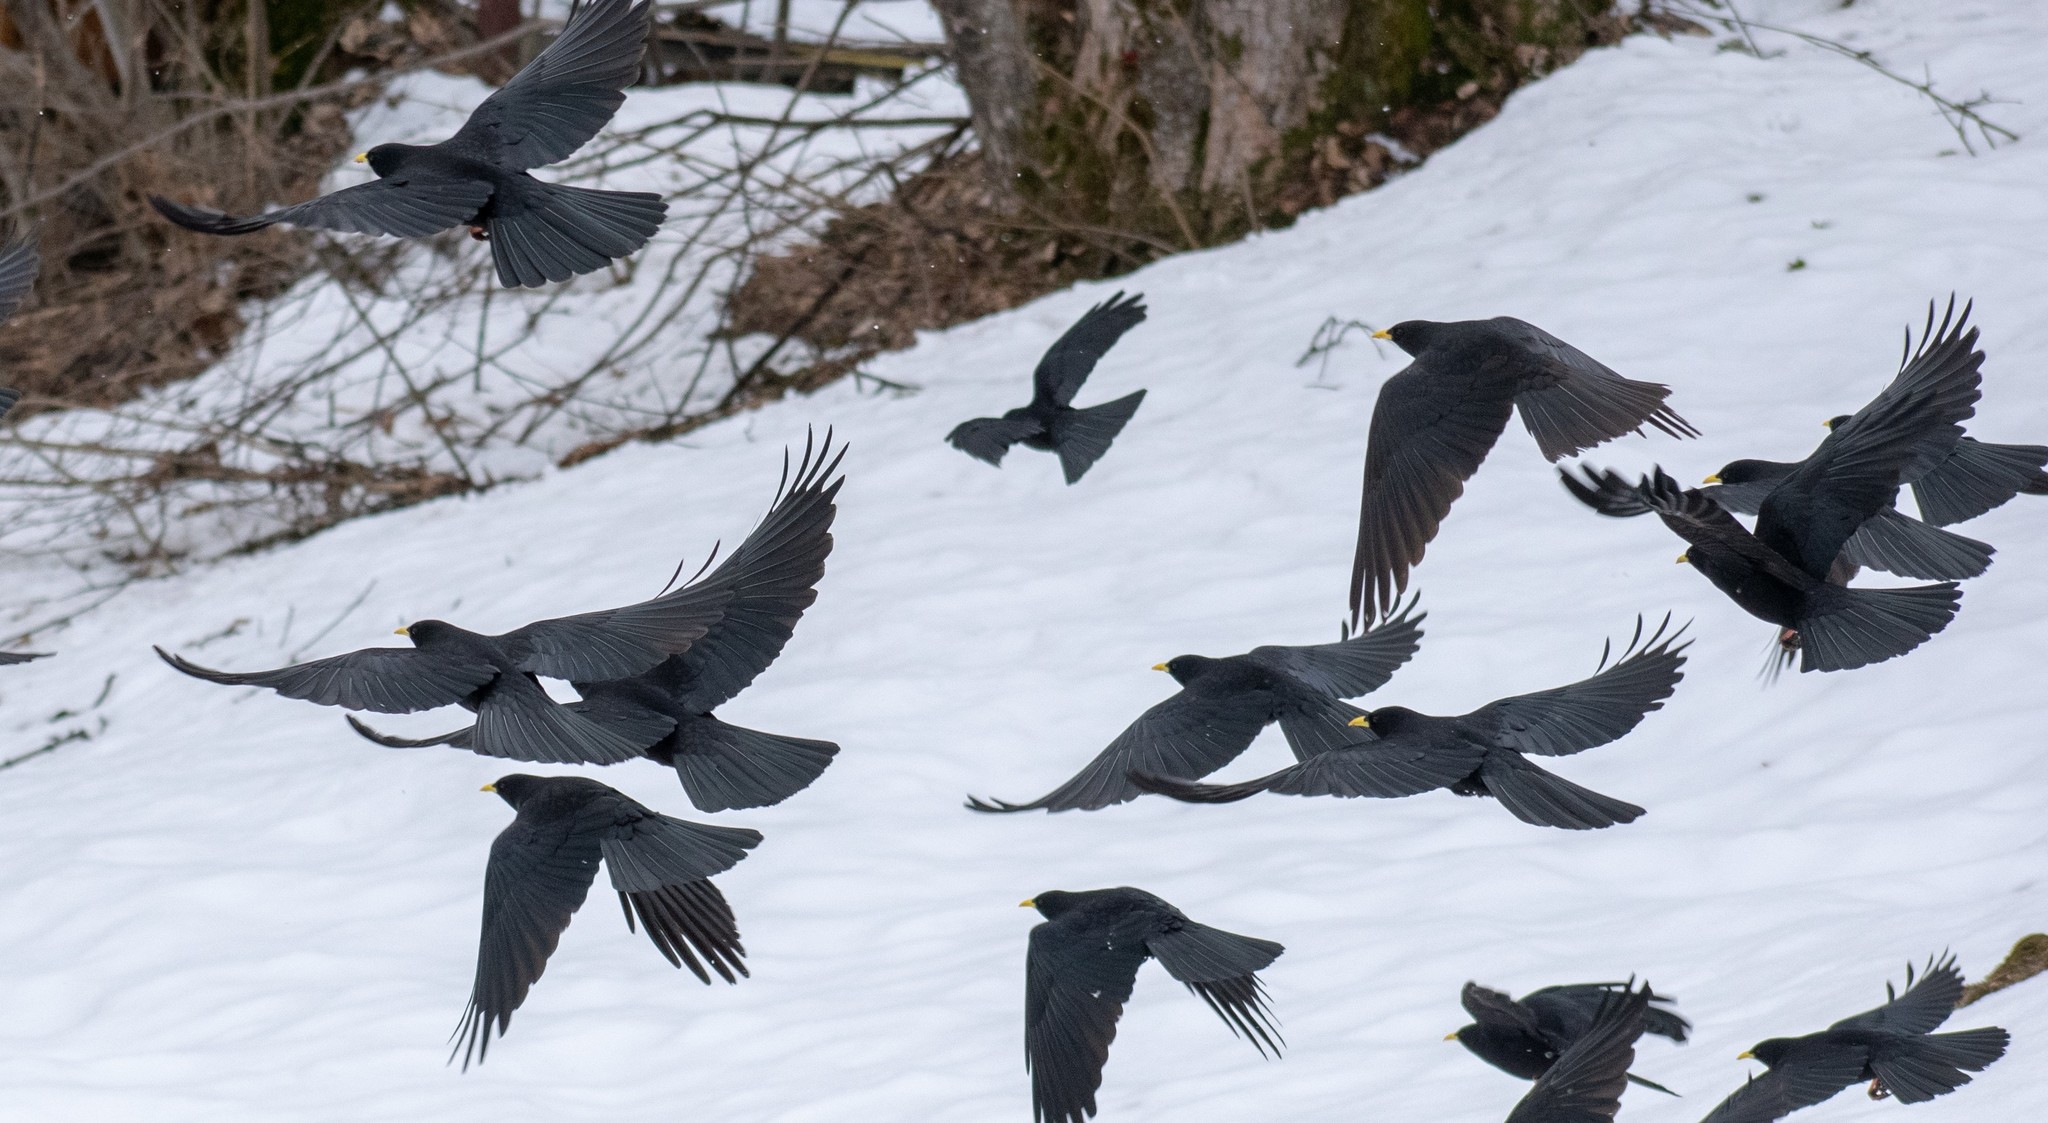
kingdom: Animalia
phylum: Chordata
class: Aves
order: Passeriformes
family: Corvidae
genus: Pyrrhocorax
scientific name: Pyrrhocorax graculus
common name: Alpine chough
